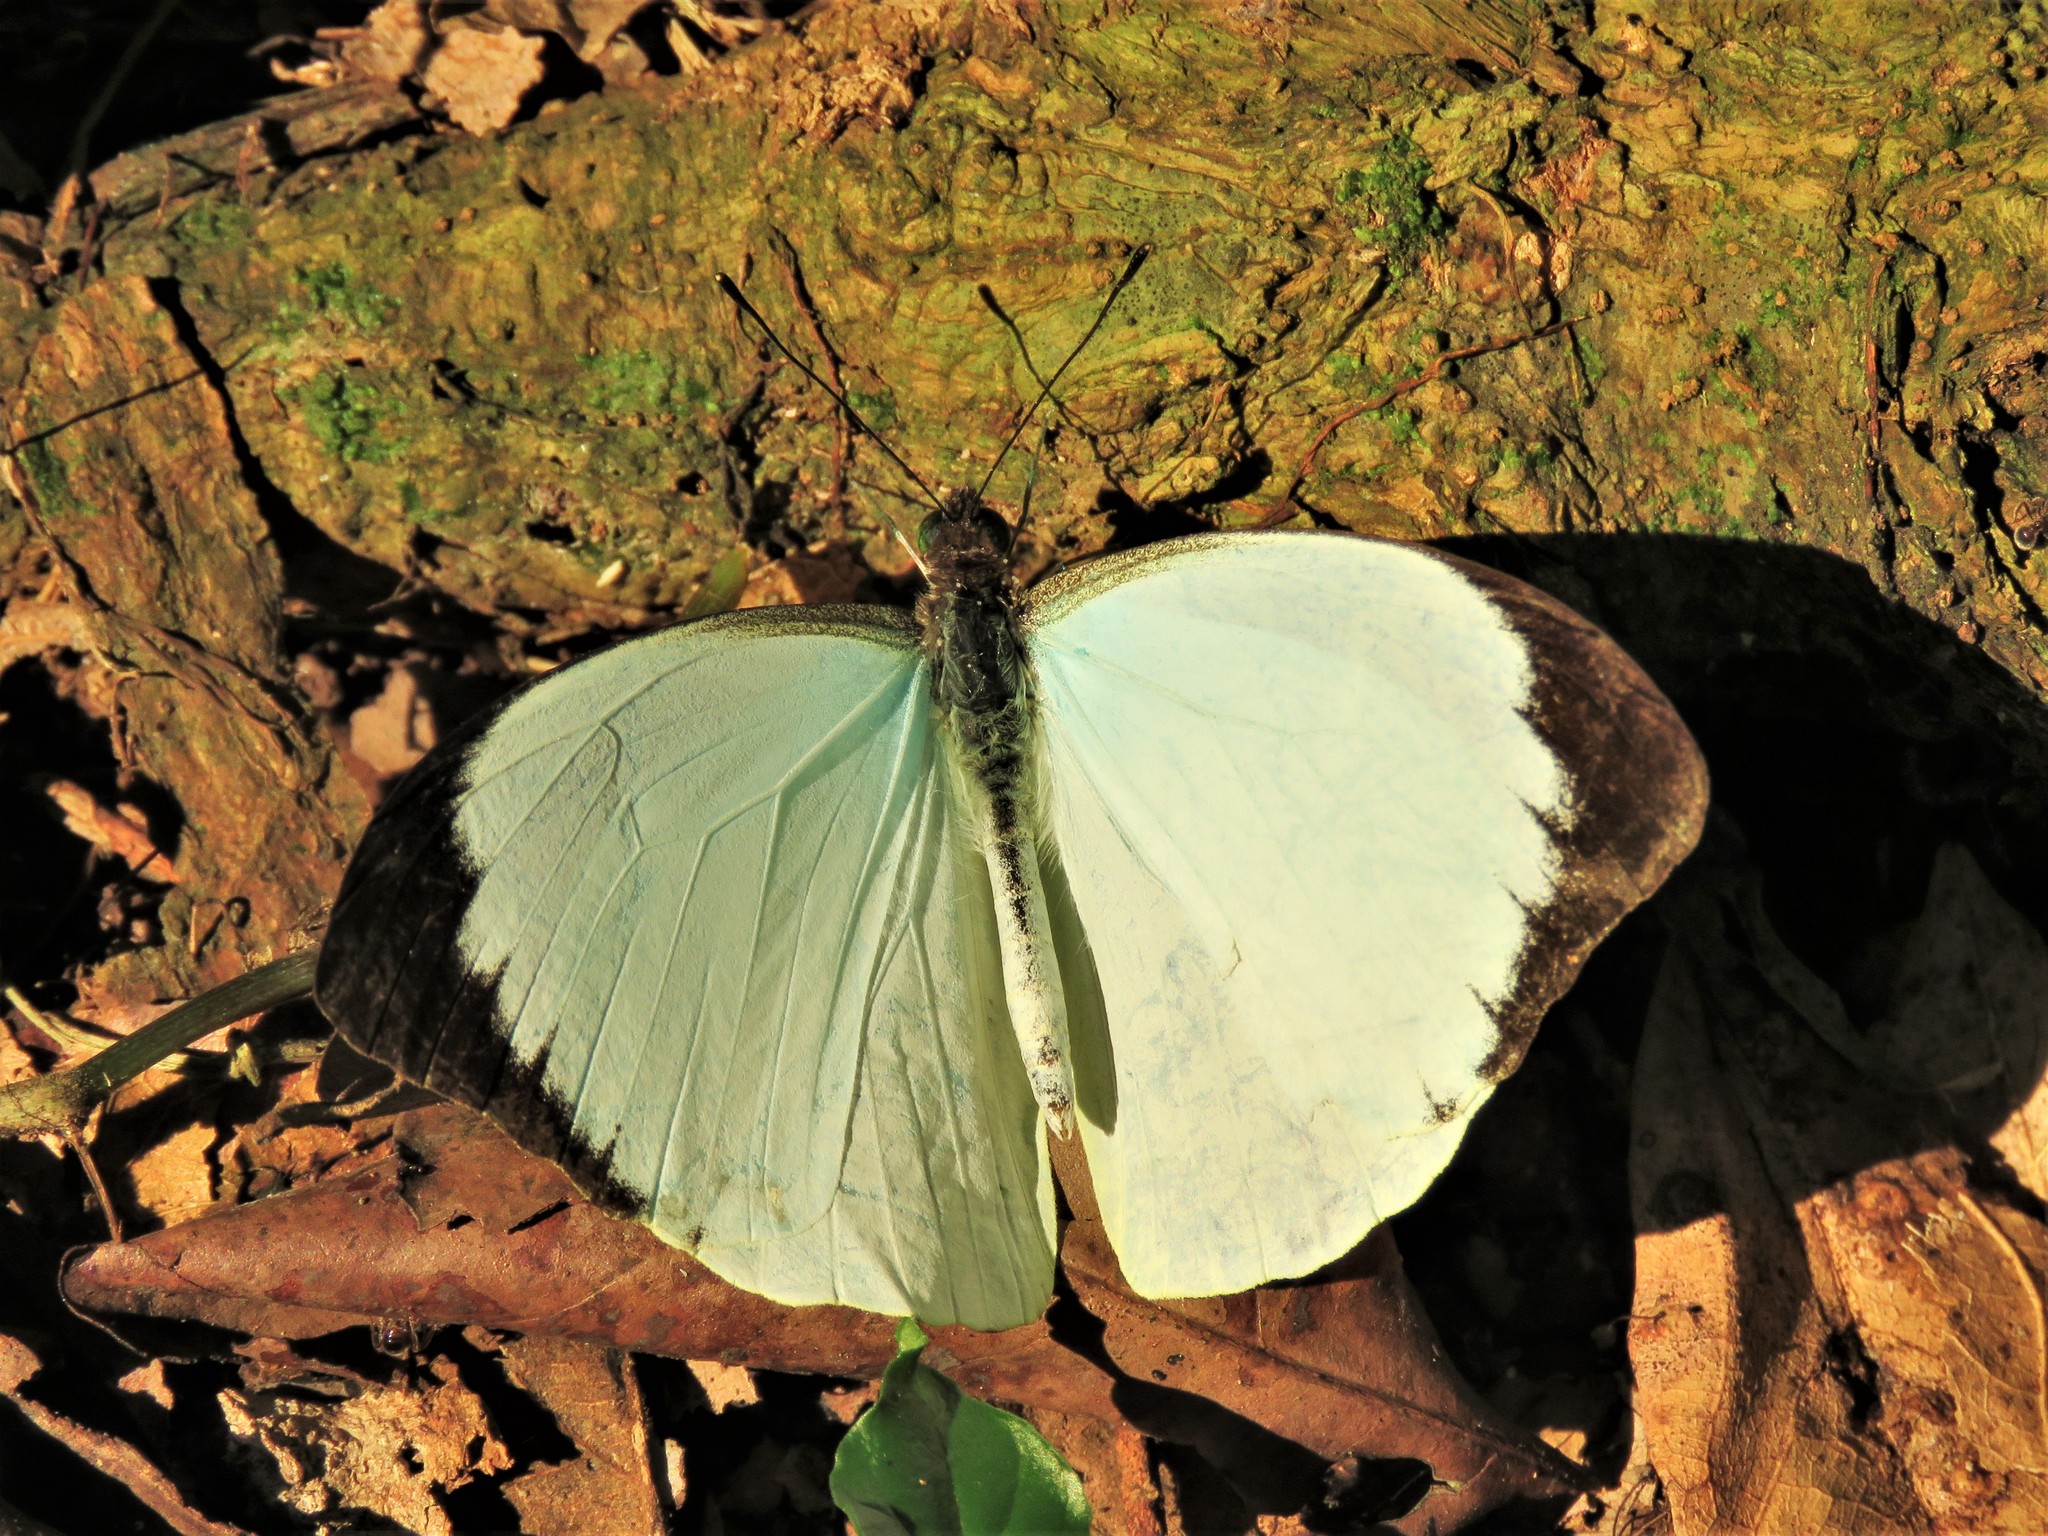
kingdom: Animalia
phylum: Arthropoda
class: Insecta
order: Lepidoptera
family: Pieridae
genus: Nepheronia
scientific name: Nepheronia argia
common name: Large vagrant
